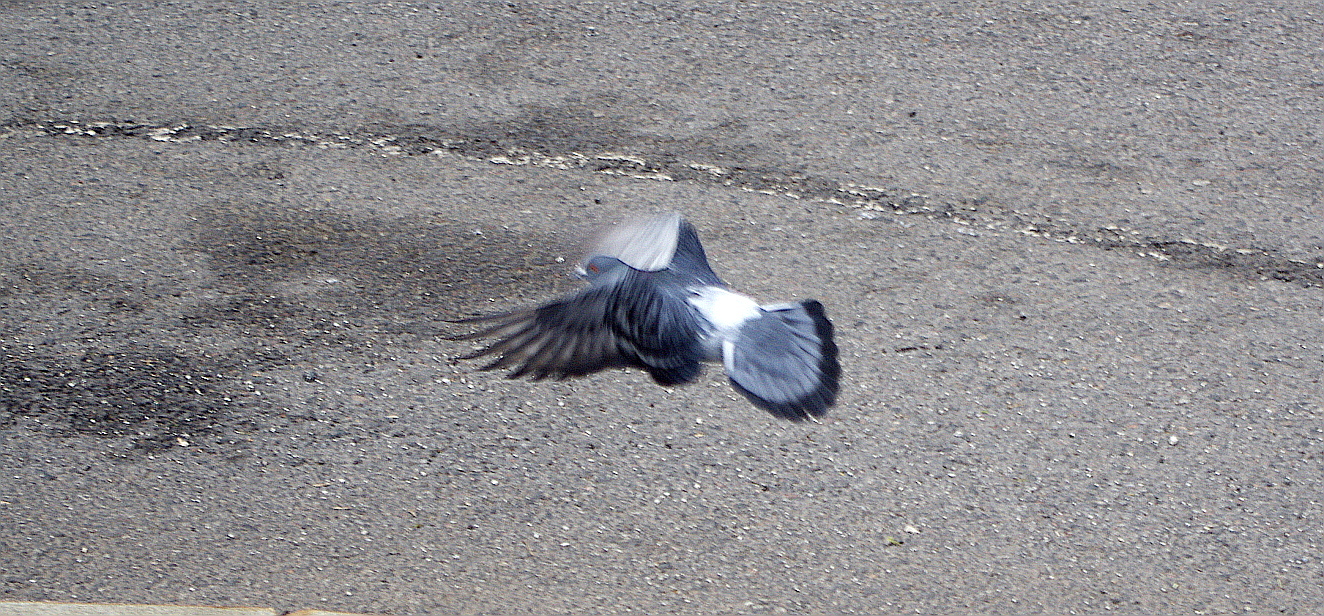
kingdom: Animalia
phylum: Chordata
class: Aves
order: Columbiformes
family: Columbidae
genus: Columba
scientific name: Columba livia
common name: Rock pigeon
